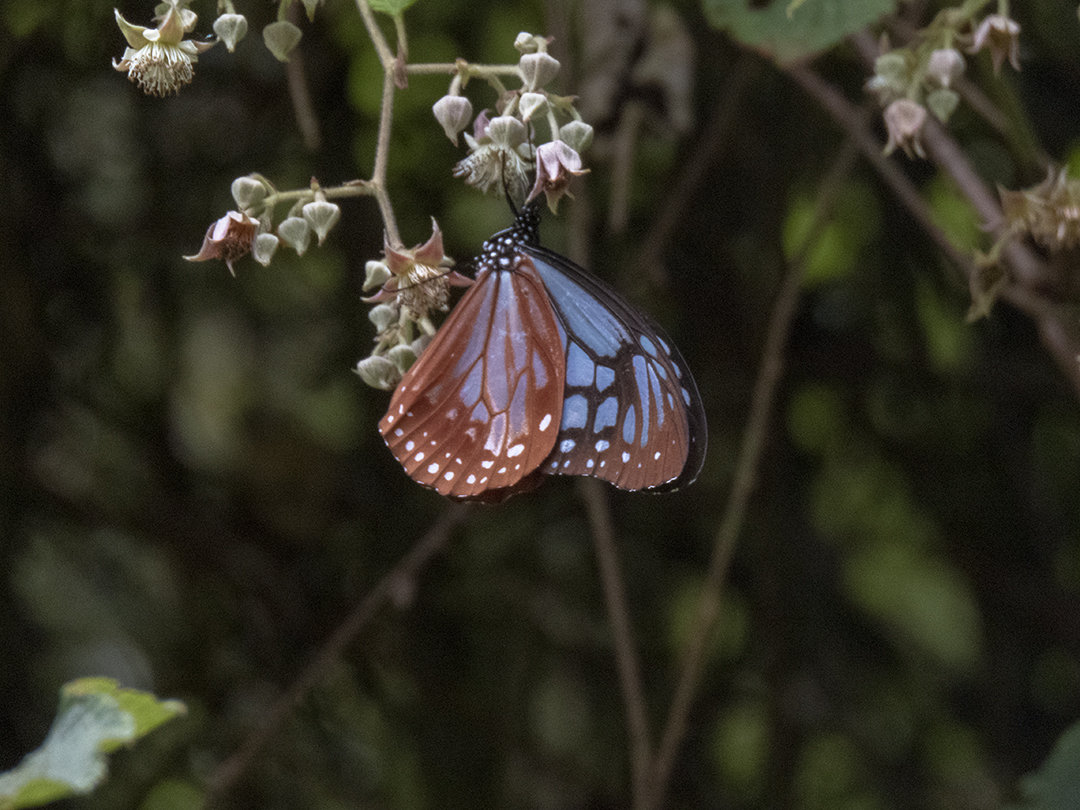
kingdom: Animalia
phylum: Arthropoda
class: Insecta
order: Lepidoptera
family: Nymphalidae
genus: Parantica
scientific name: Parantica sita
